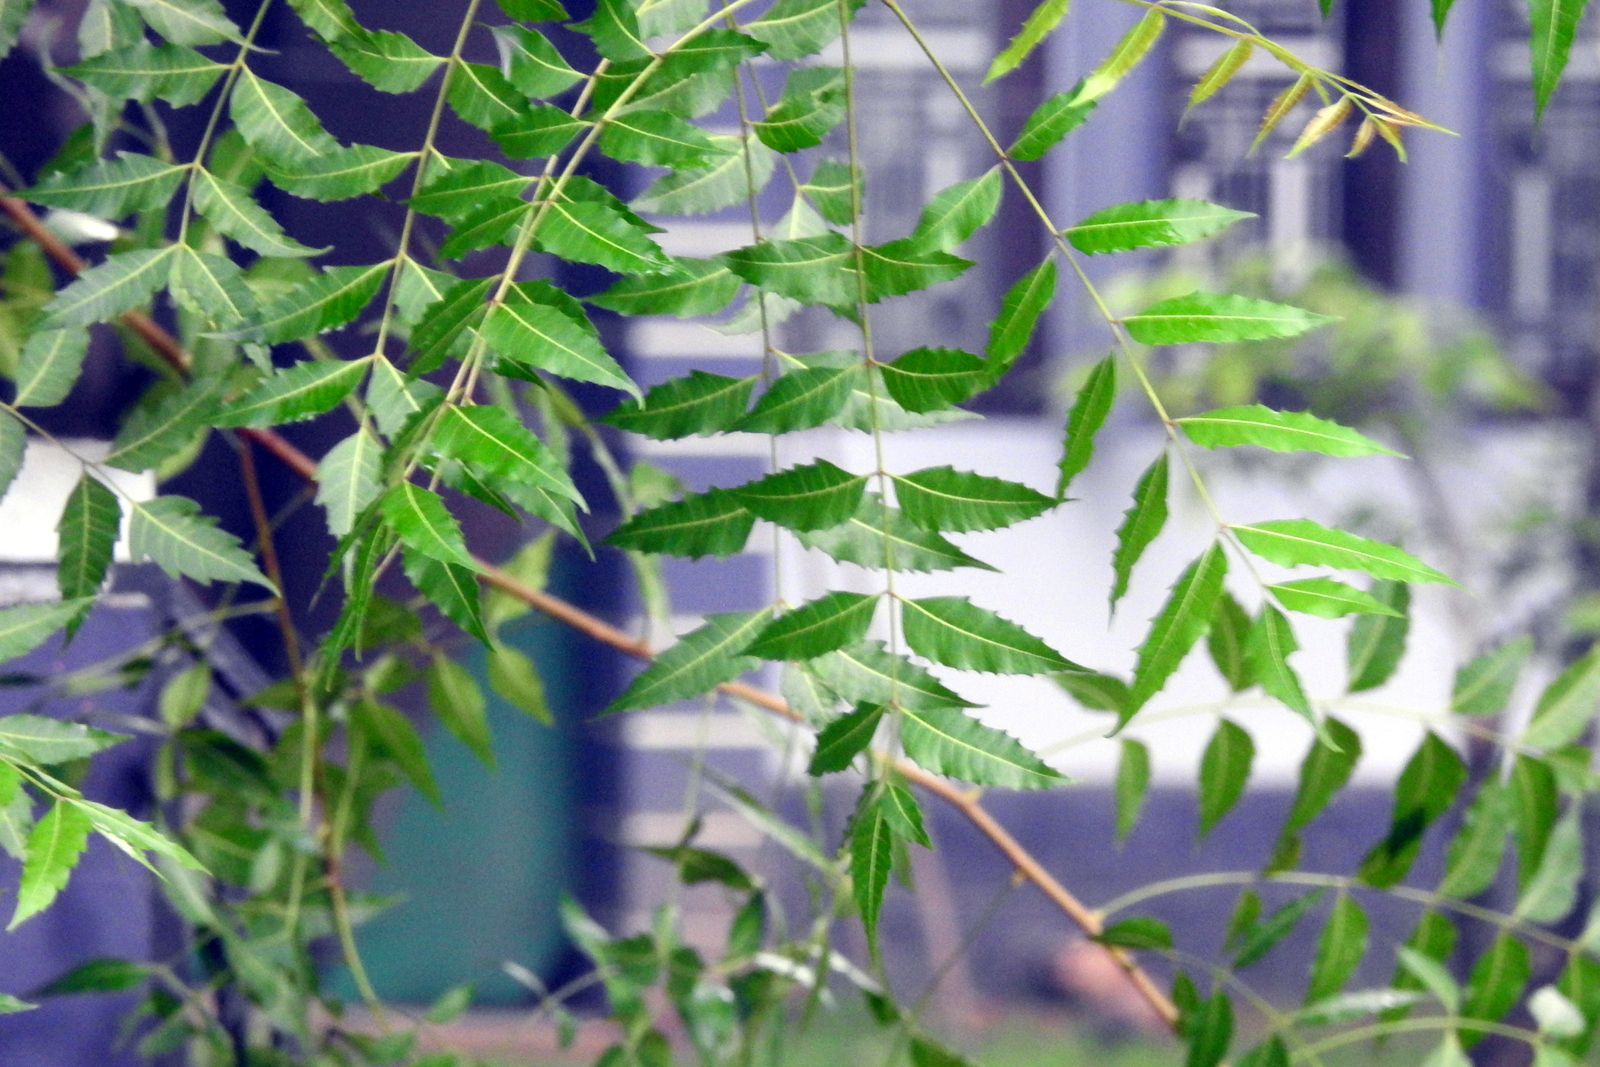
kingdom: Plantae
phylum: Tracheophyta
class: Magnoliopsida
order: Sapindales
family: Meliaceae
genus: Azadirachta
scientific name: Azadirachta indica
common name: Neem
